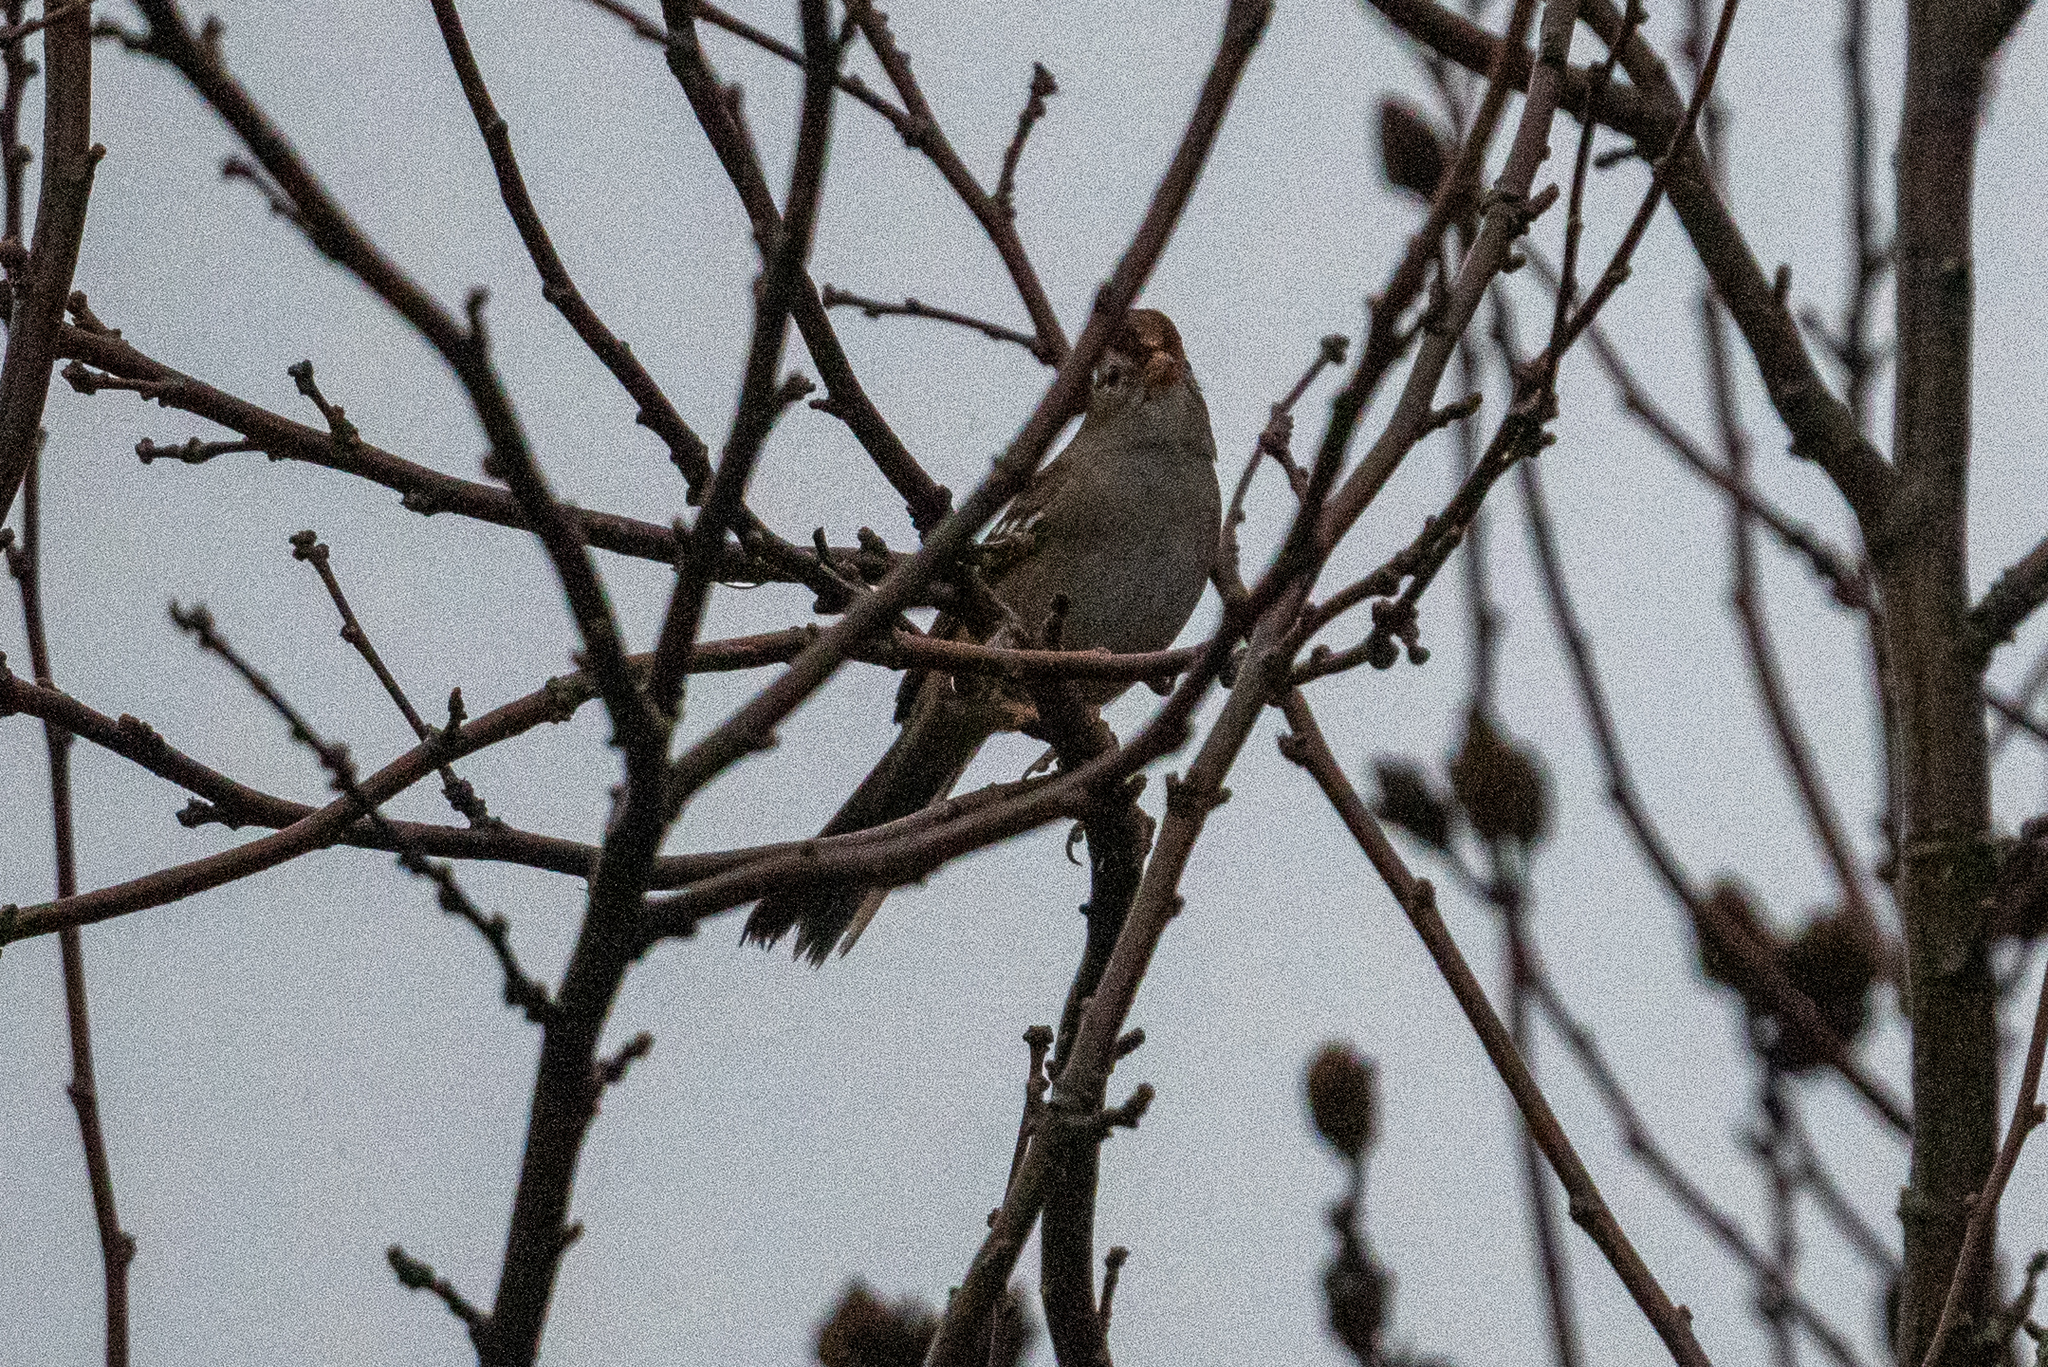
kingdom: Animalia
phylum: Chordata
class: Aves
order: Passeriformes
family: Passerellidae
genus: Zonotrichia
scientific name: Zonotrichia leucophrys
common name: White-crowned sparrow
